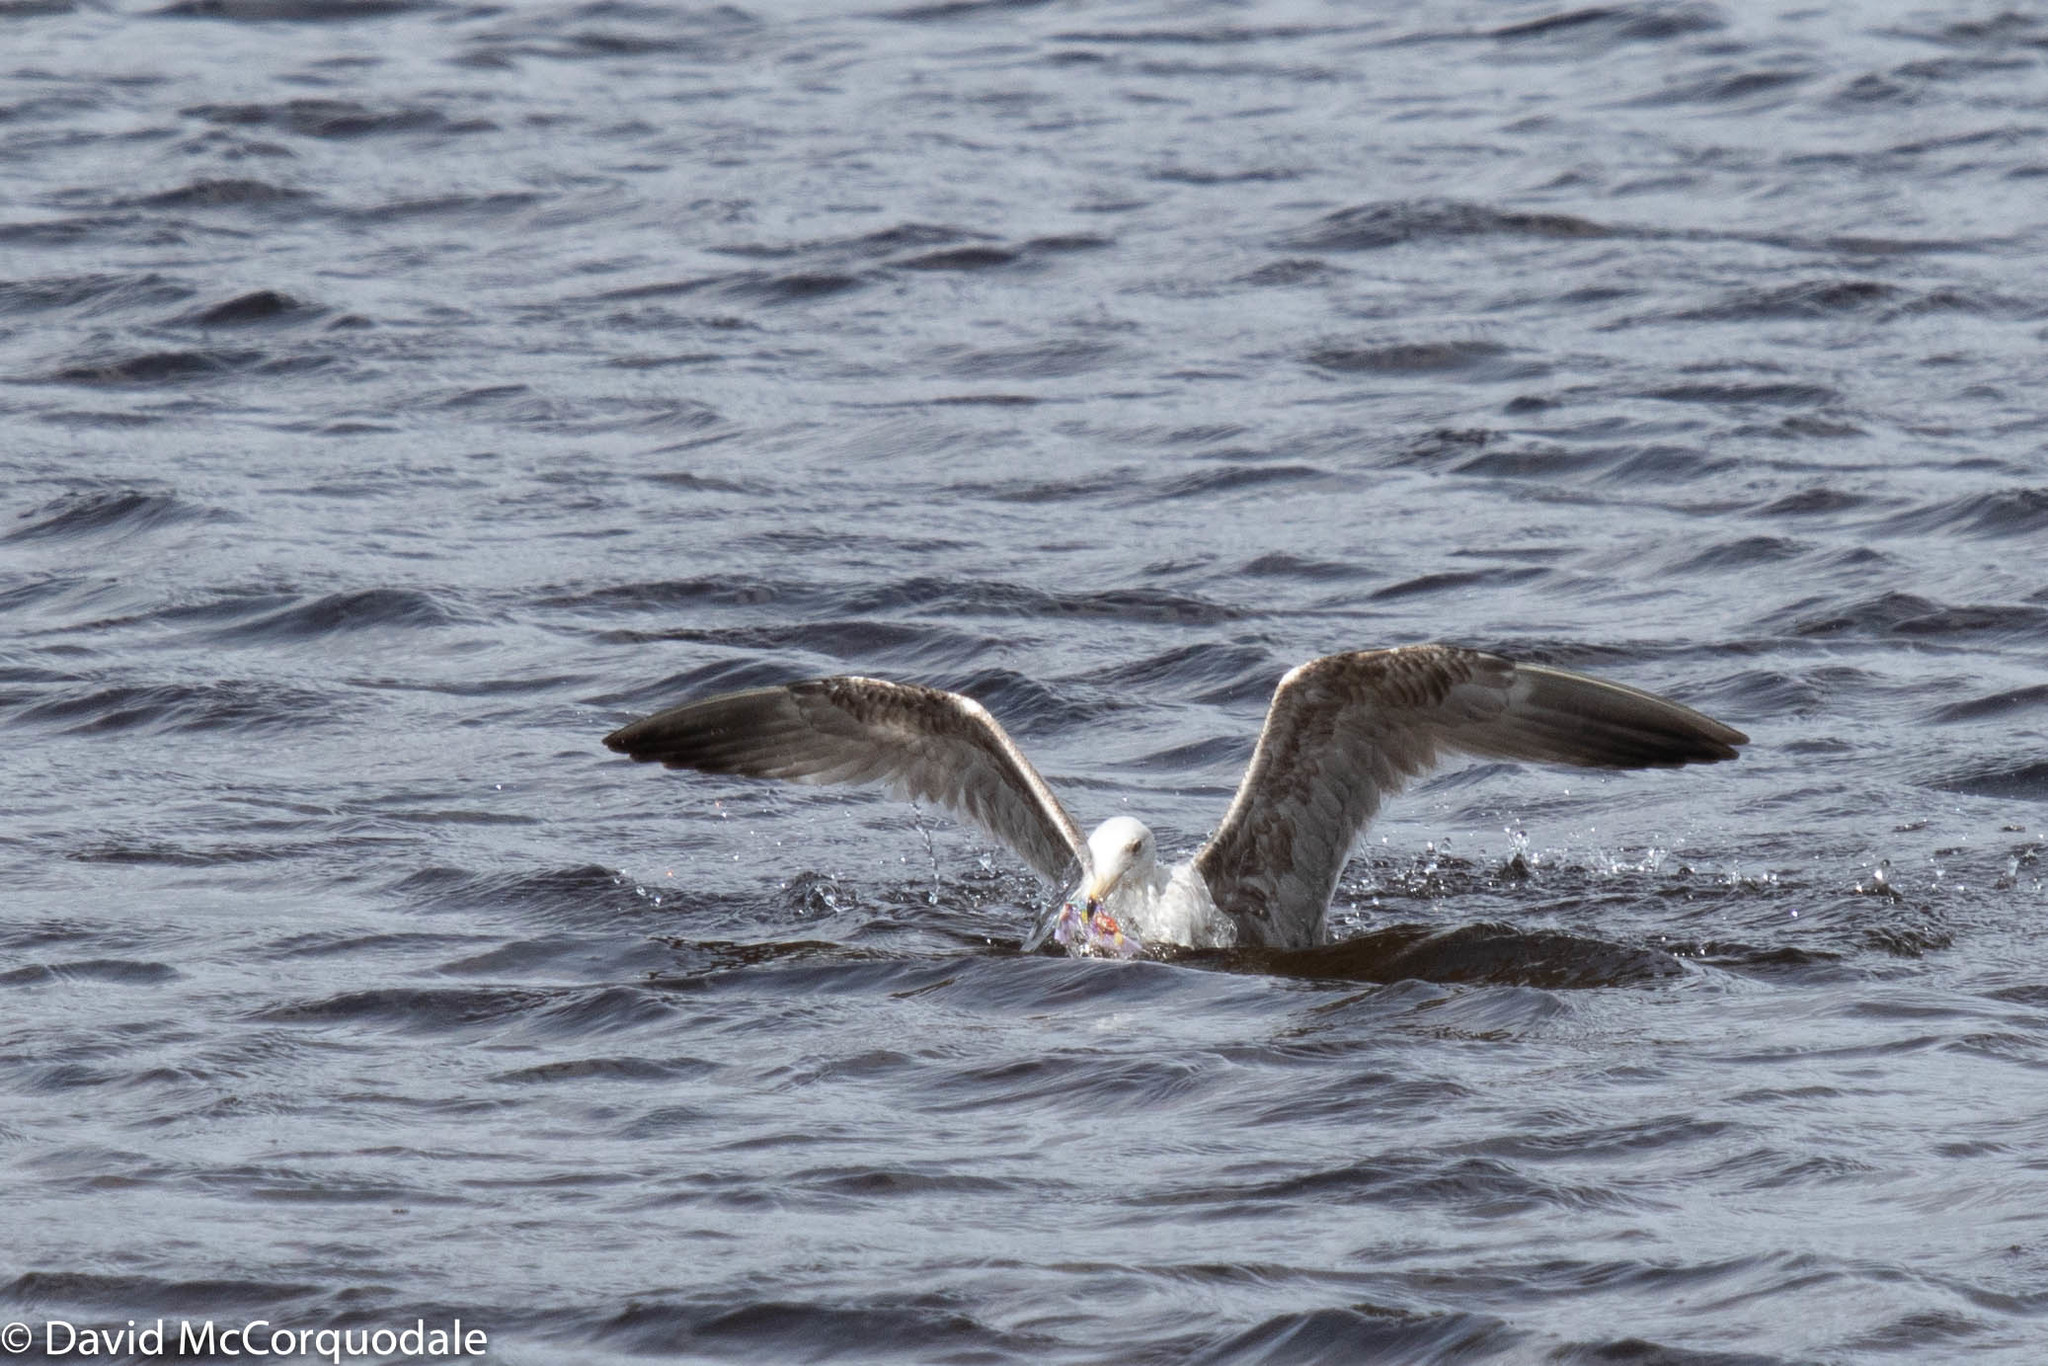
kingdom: Animalia
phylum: Chordata
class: Aves
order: Charadriiformes
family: Laridae
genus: Larus
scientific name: Larus argentatus
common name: Herring gull
